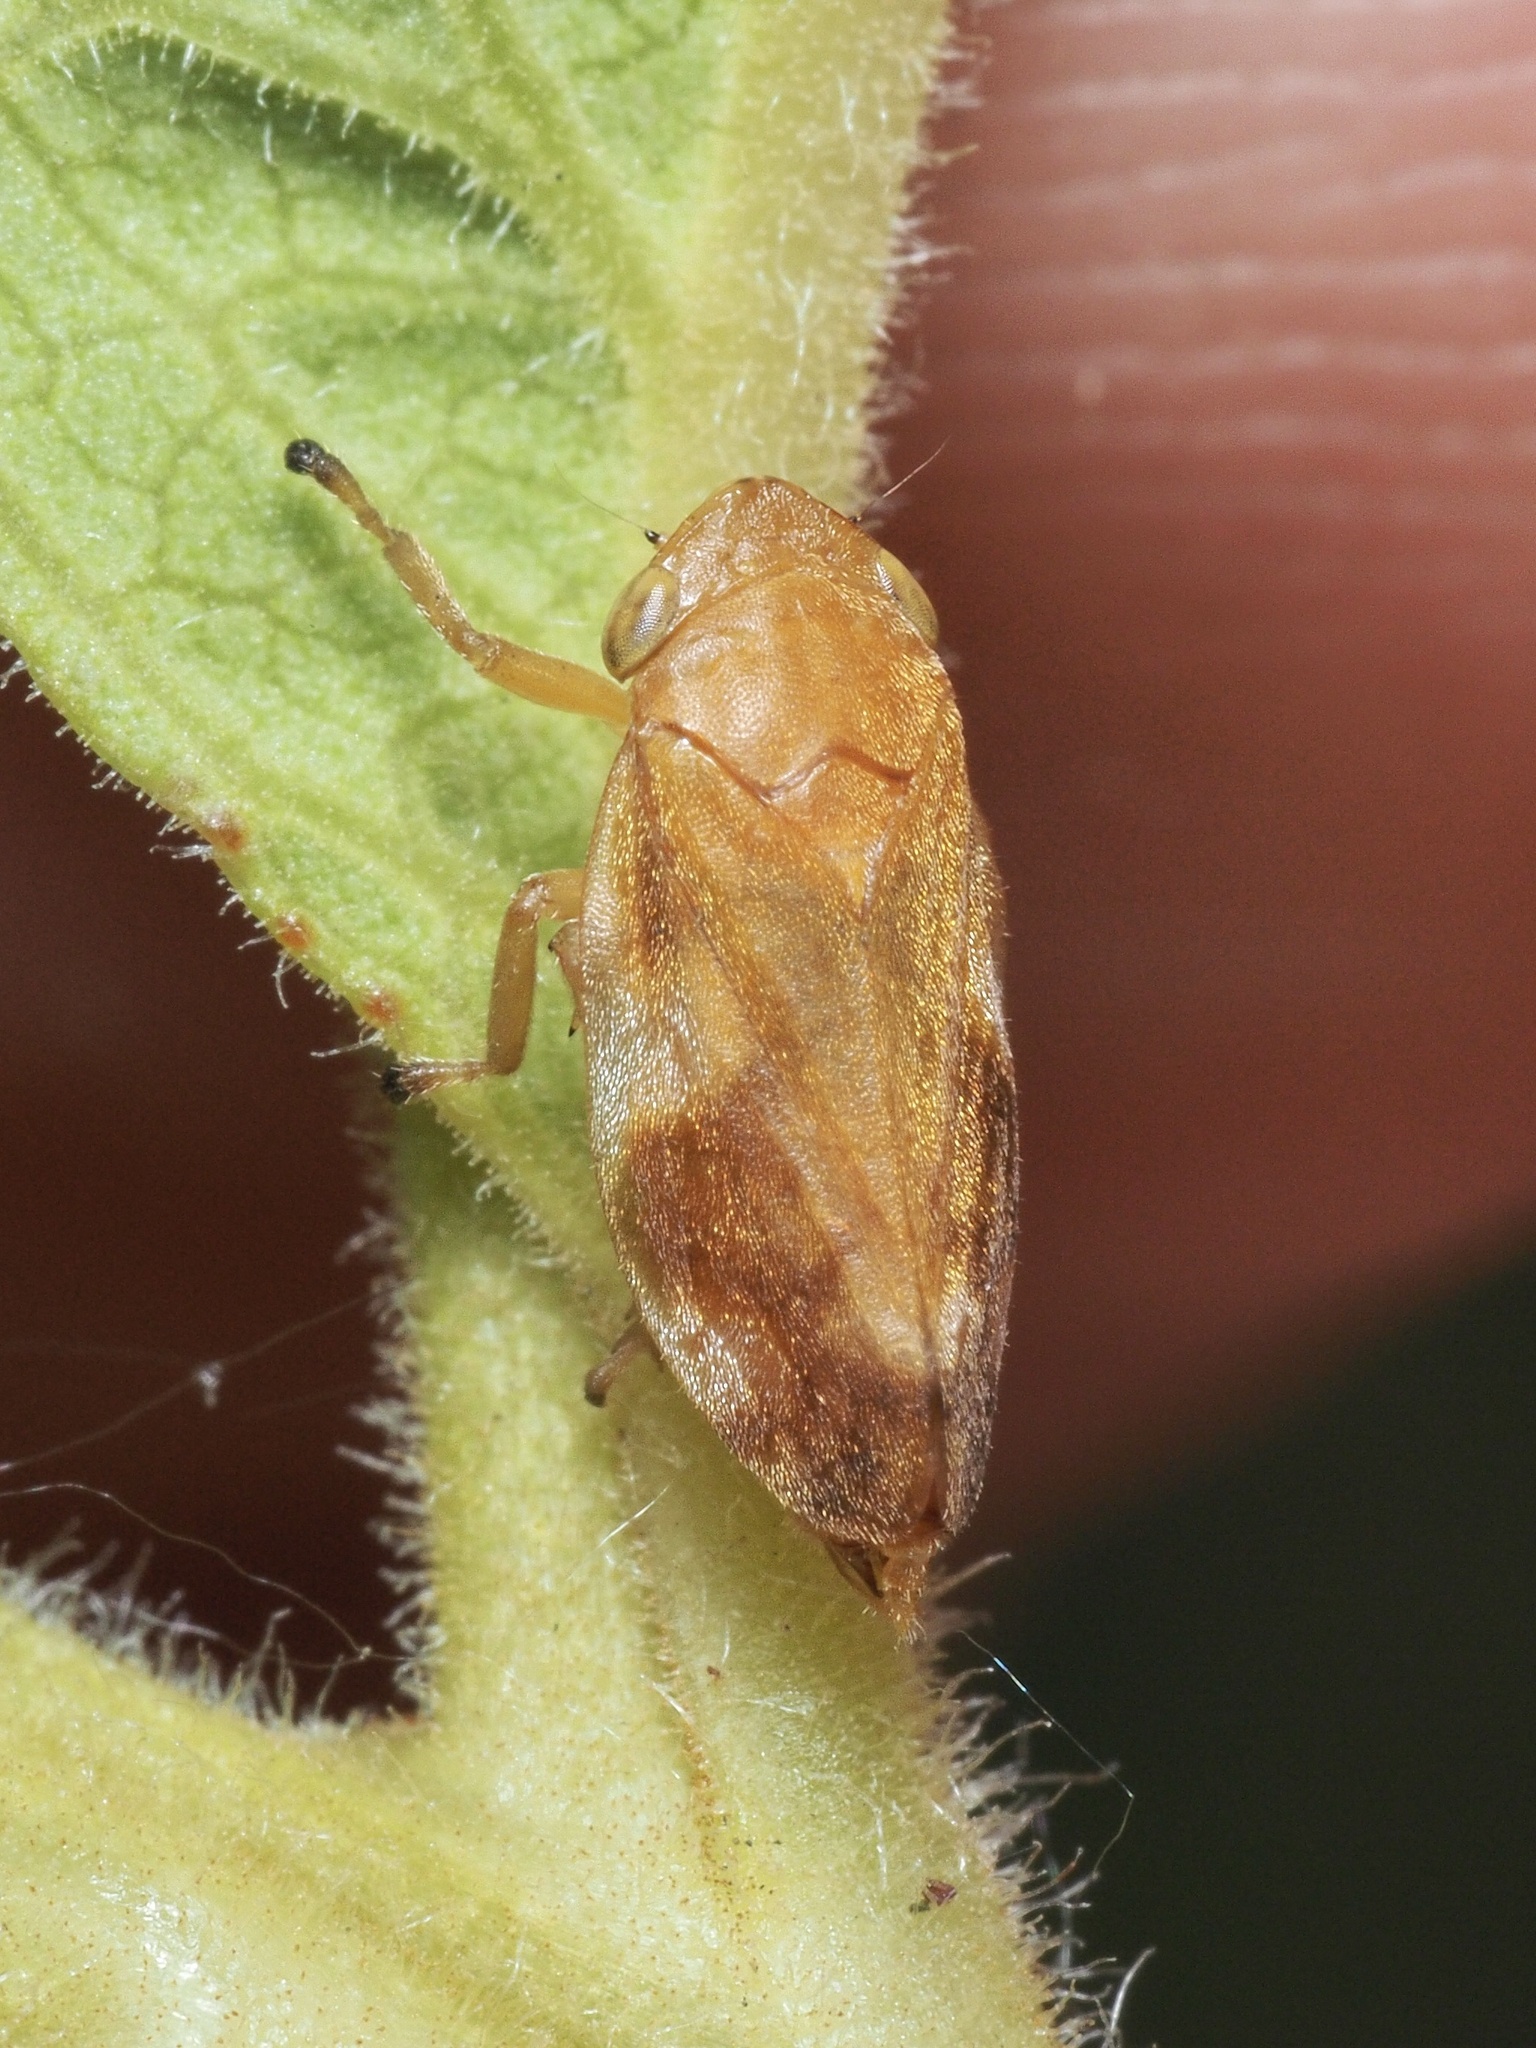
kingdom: Animalia
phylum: Arthropoda
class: Insecta
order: Hemiptera
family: Aphrophoridae
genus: Philaenus
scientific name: Philaenus spumarius
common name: Meadow spittlebug
